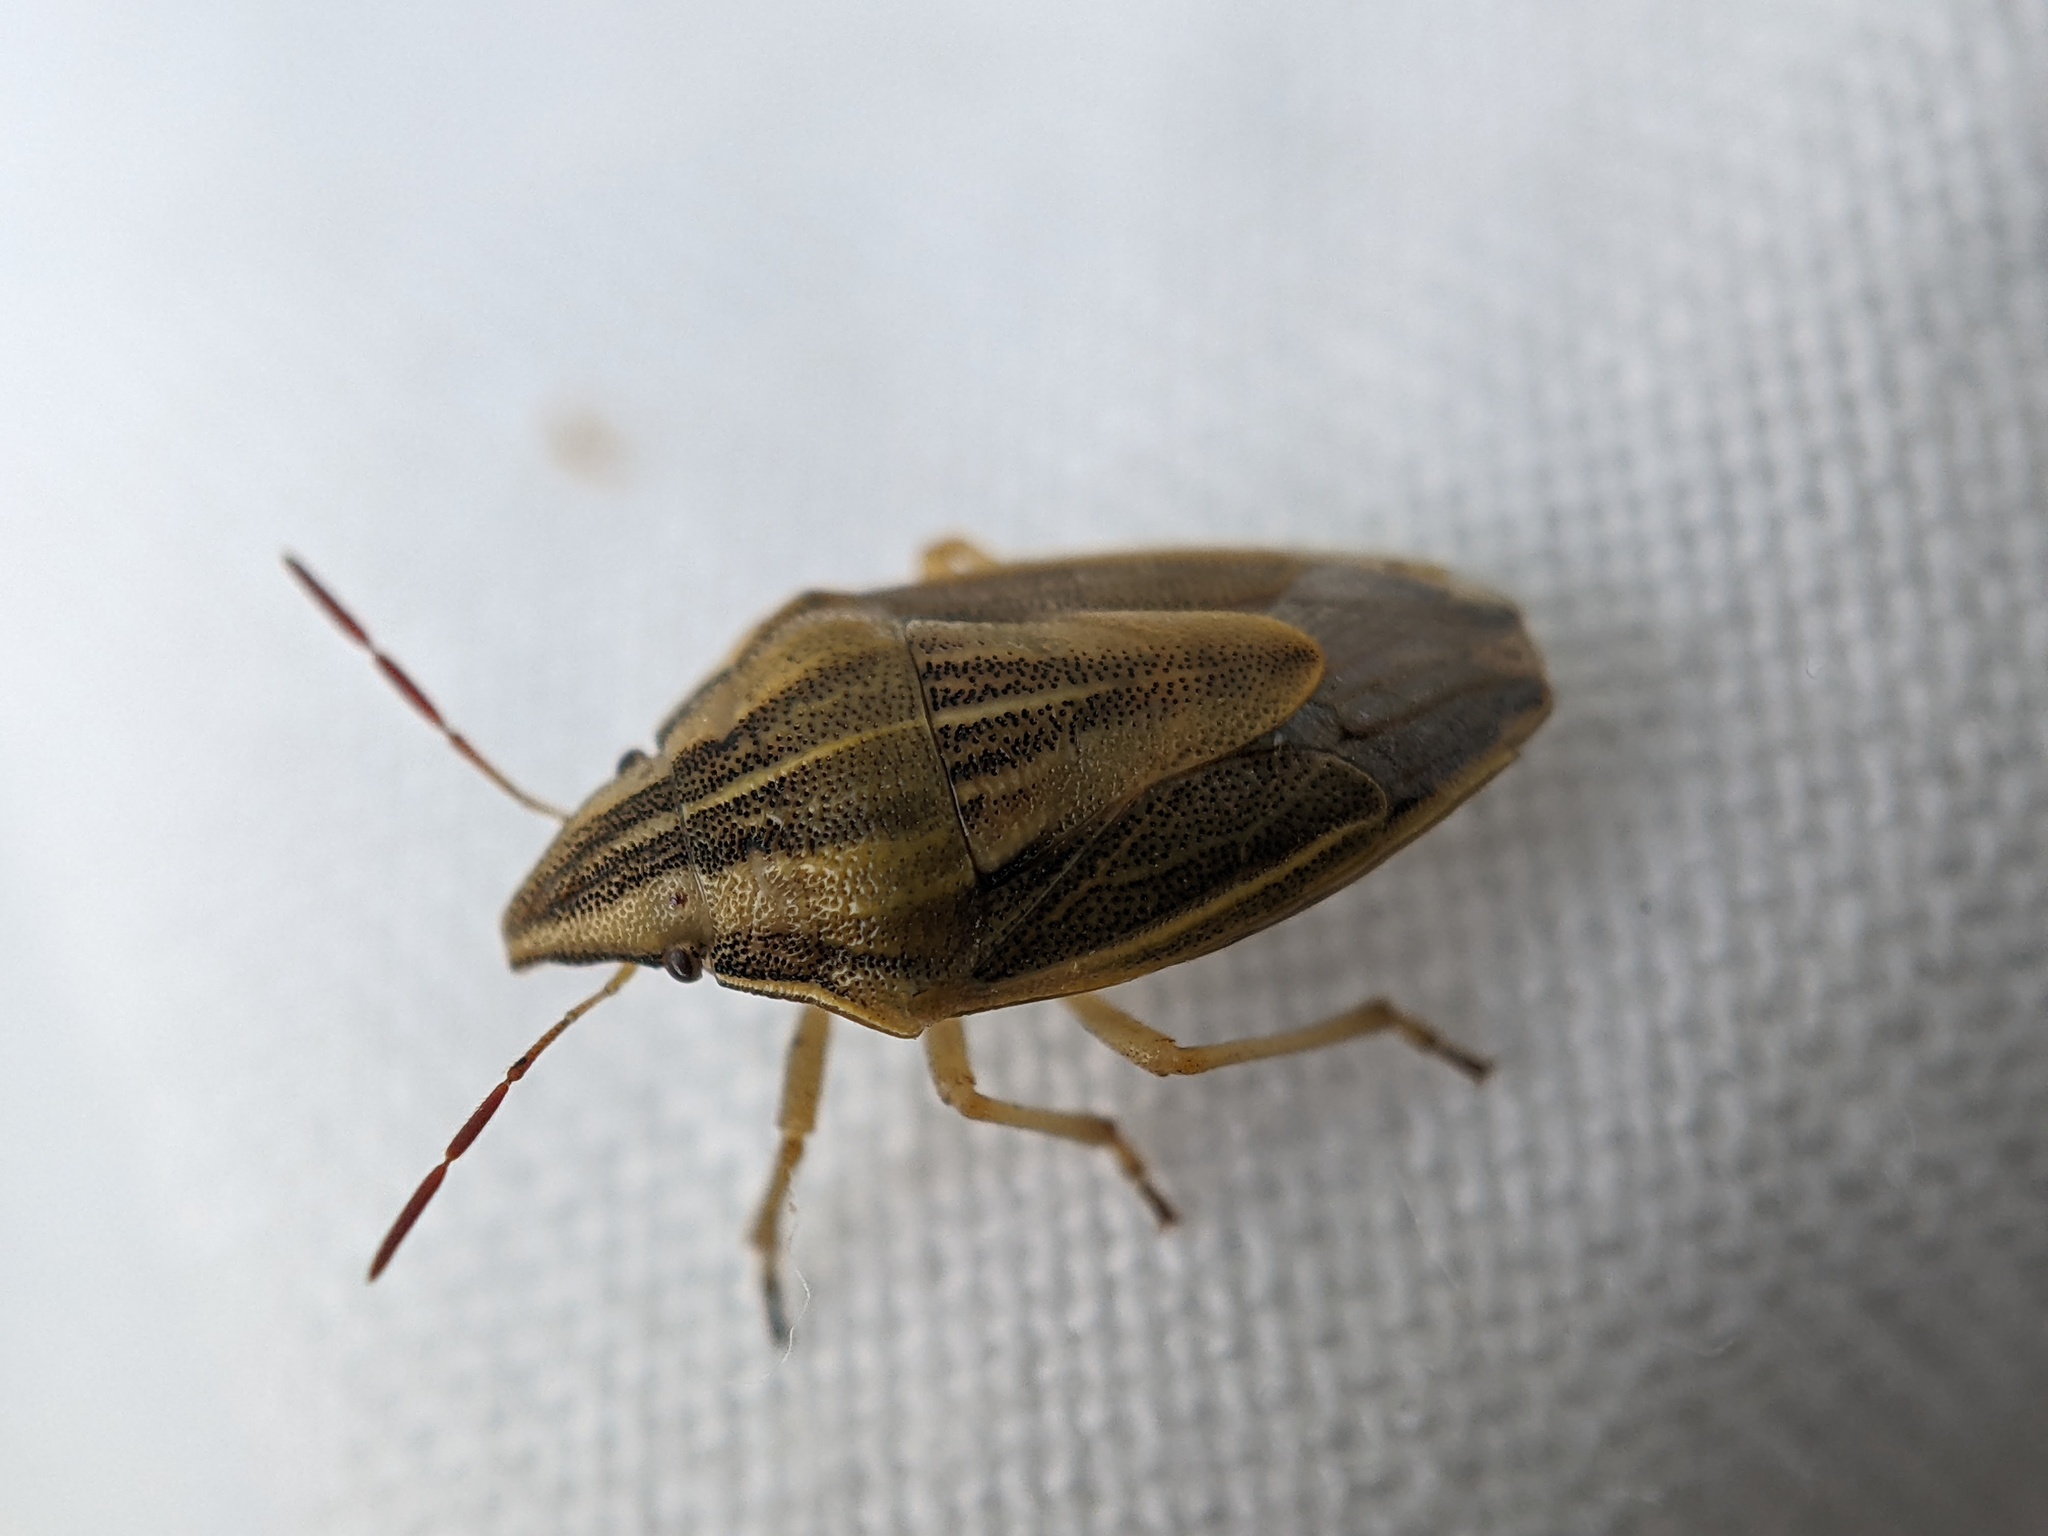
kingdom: Animalia
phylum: Arthropoda
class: Insecta
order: Hemiptera
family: Pentatomidae
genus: Aelia
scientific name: Aelia acuminata
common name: Bishop's mitre
